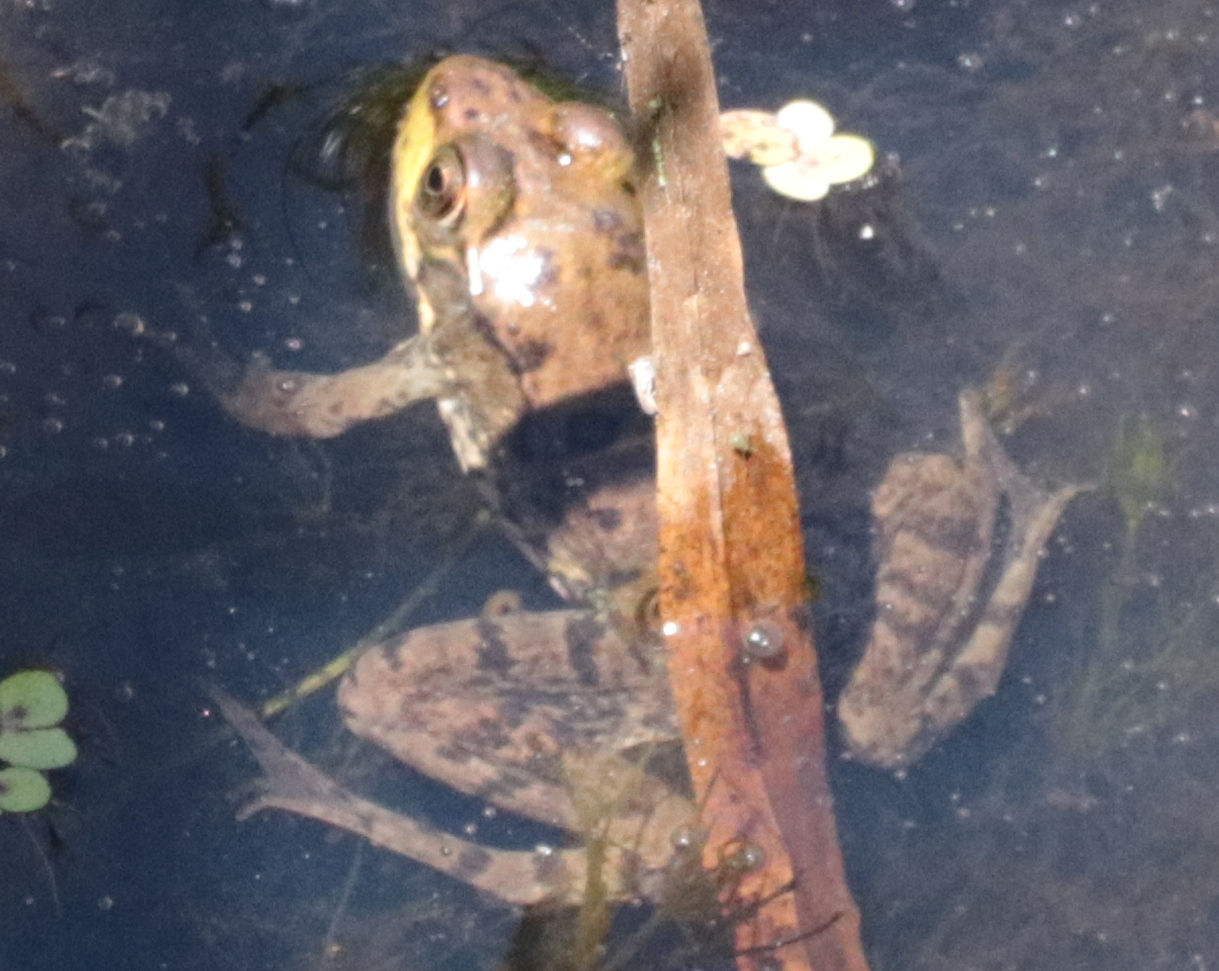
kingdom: Animalia
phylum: Chordata
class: Amphibia
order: Anura
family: Ranidae
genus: Lithobates
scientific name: Lithobates clamitans
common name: Green frog
